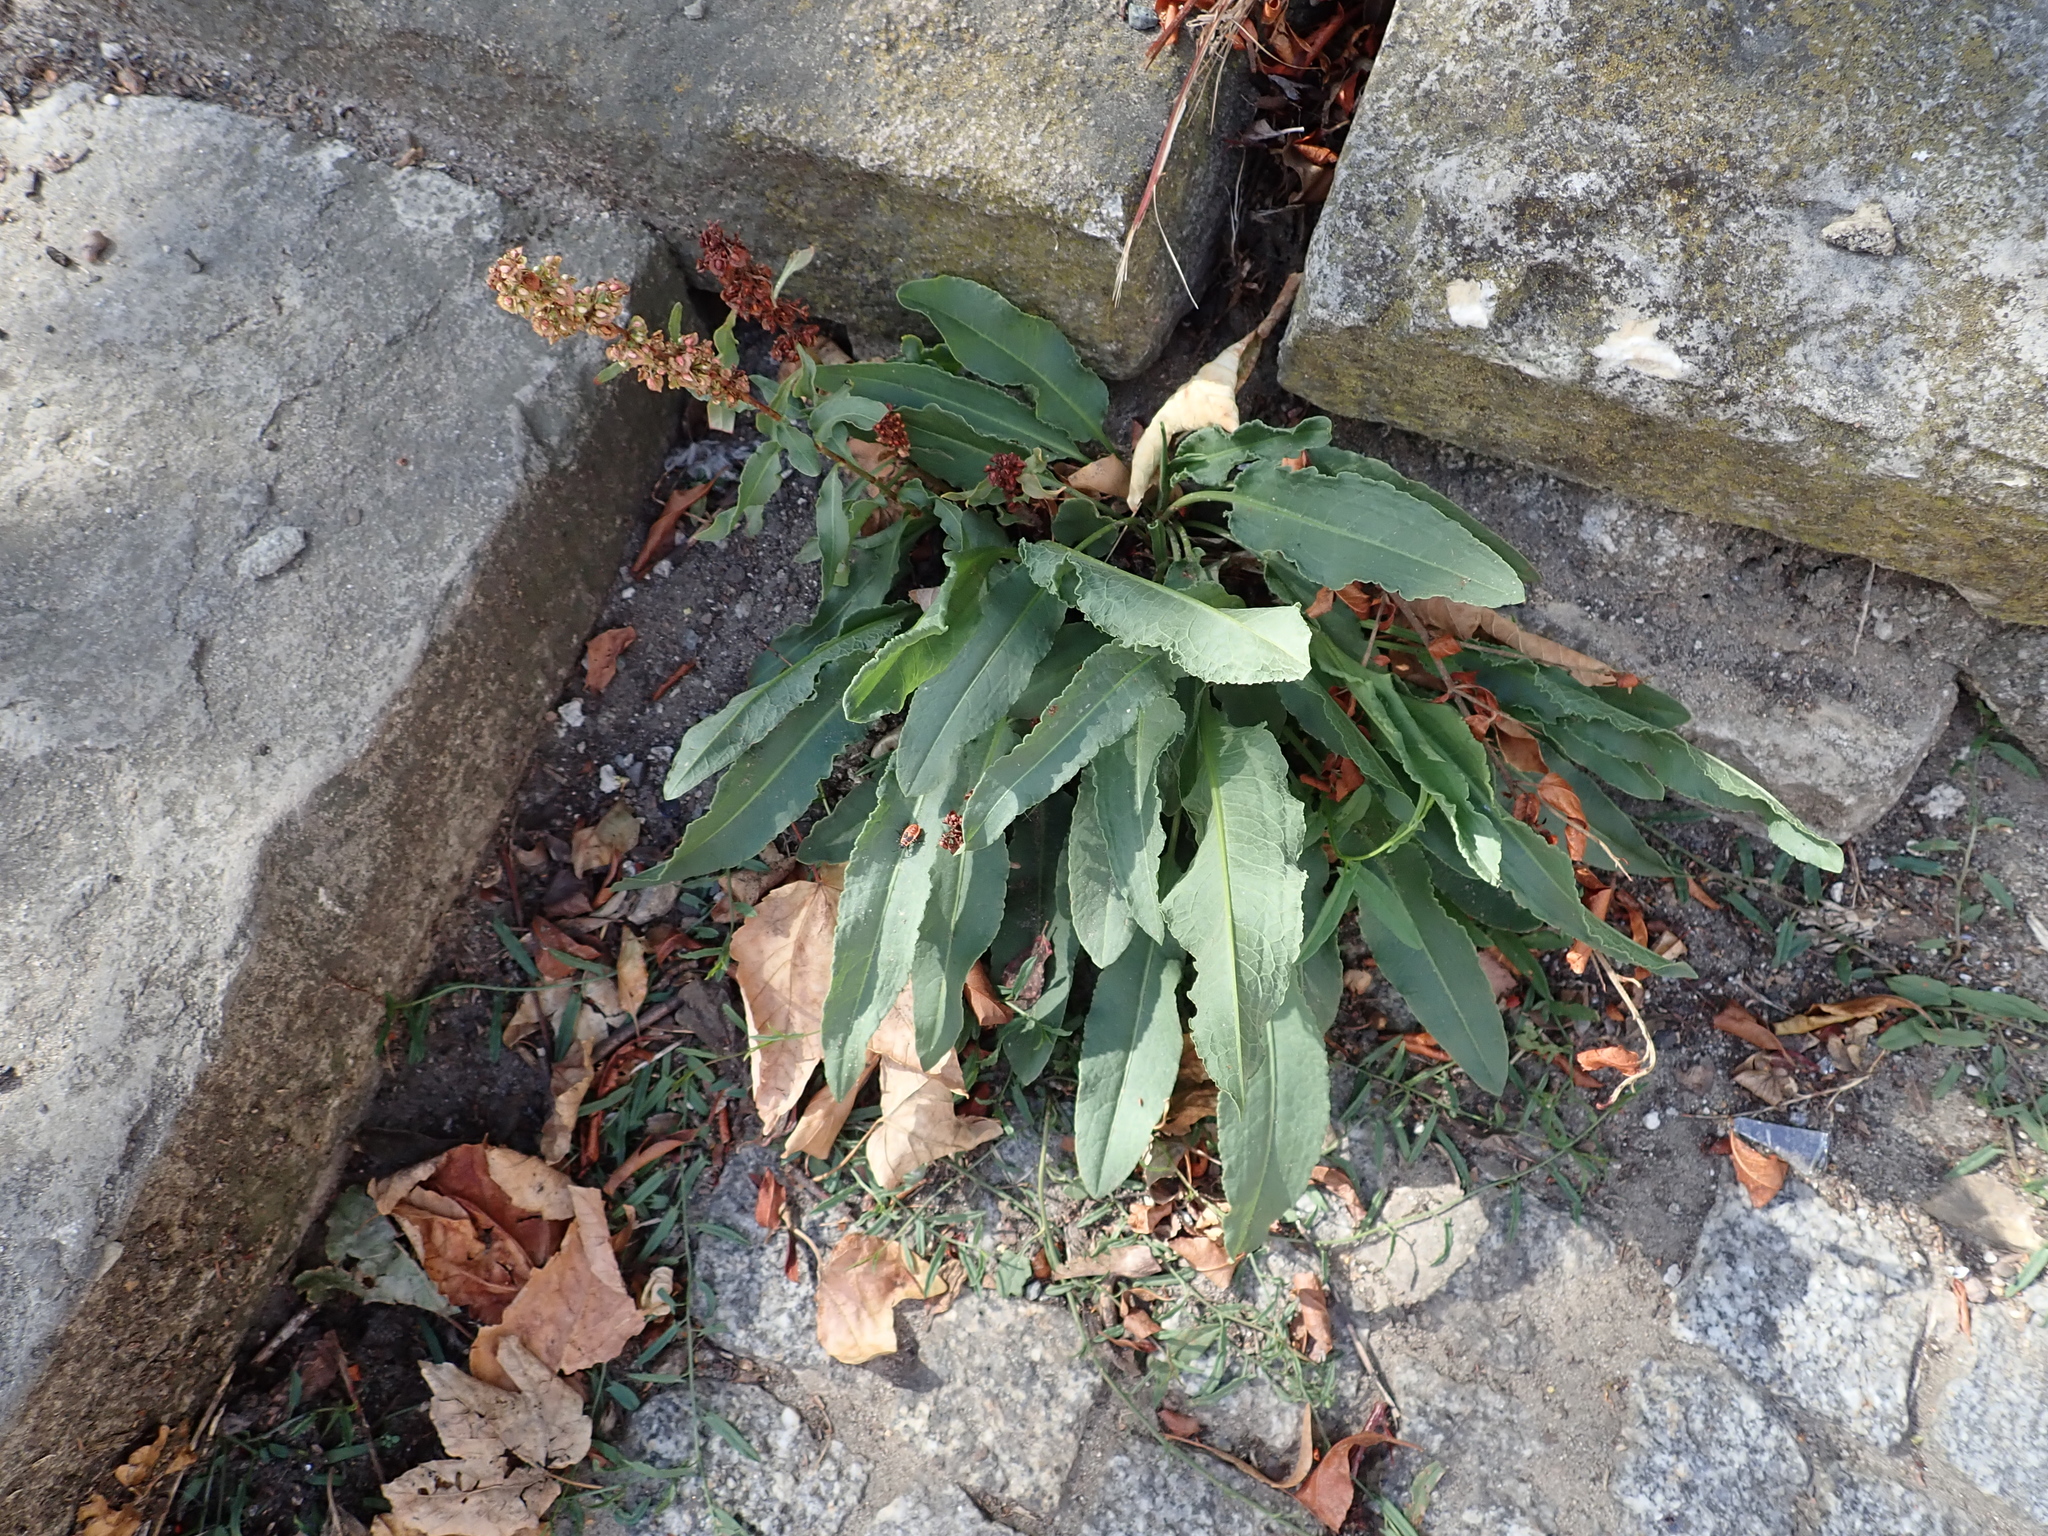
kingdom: Plantae
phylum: Tracheophyta
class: Magnoliopsida
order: Caryophyllales
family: Polygonaceae
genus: Rumex
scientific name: Rumex crispus
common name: Curled dock
